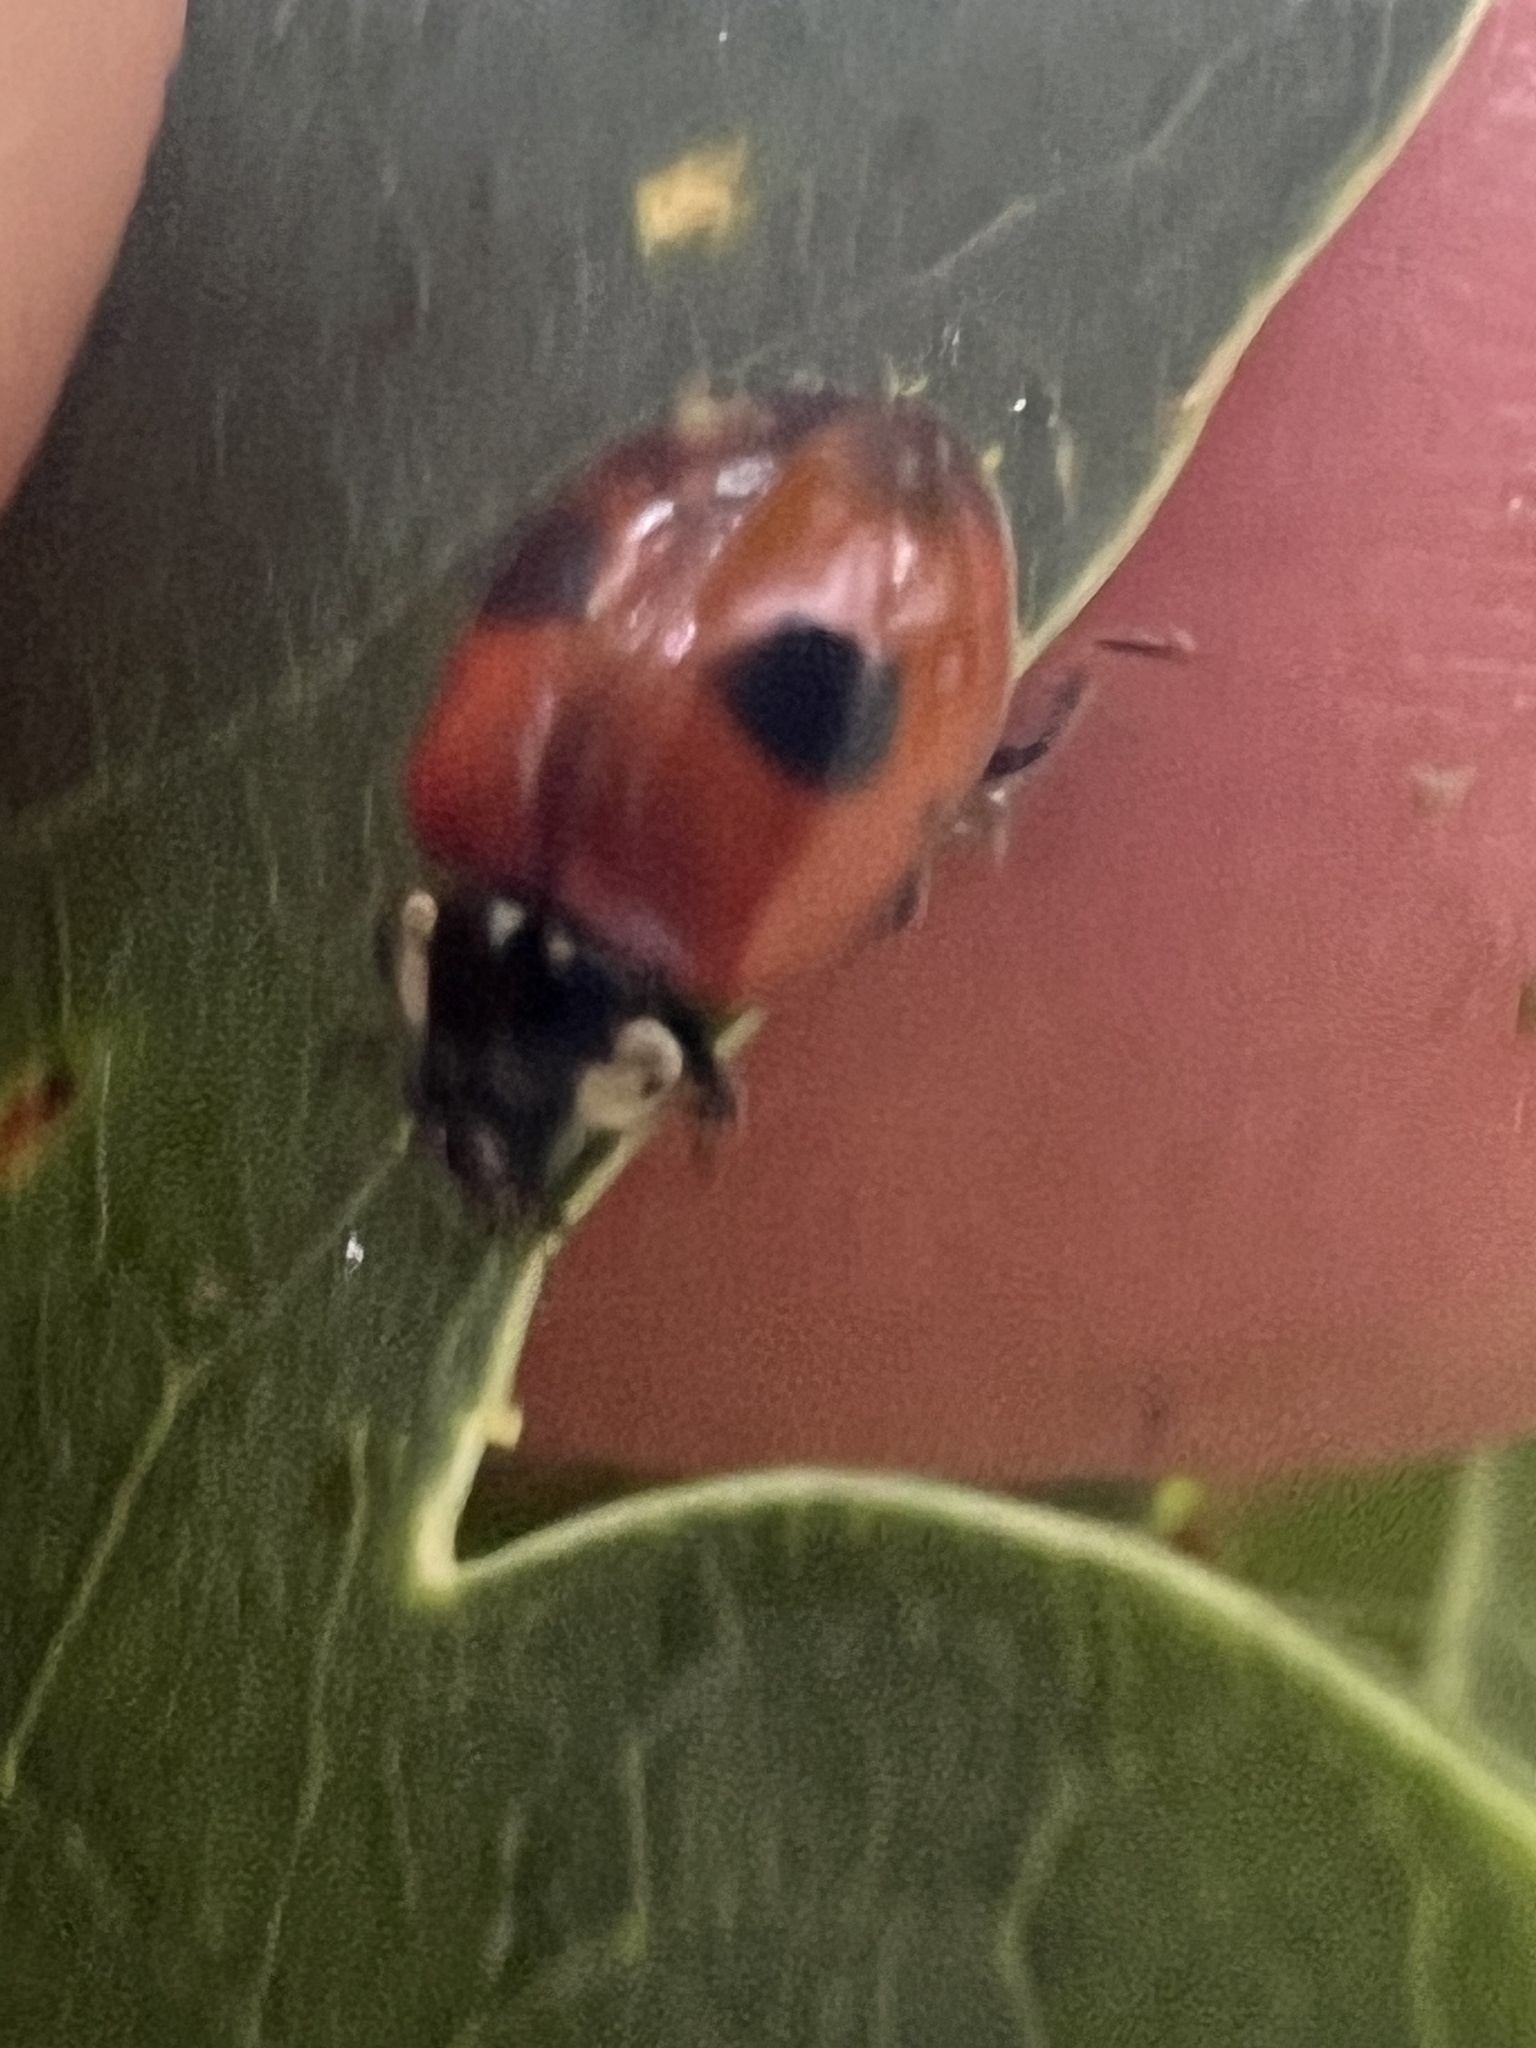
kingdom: Animalia
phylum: Arthropoda
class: Insecta
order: Coleoptera
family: Coccinellidae
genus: Adalia
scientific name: Adalia bipunctata
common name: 2-spot ladybird
